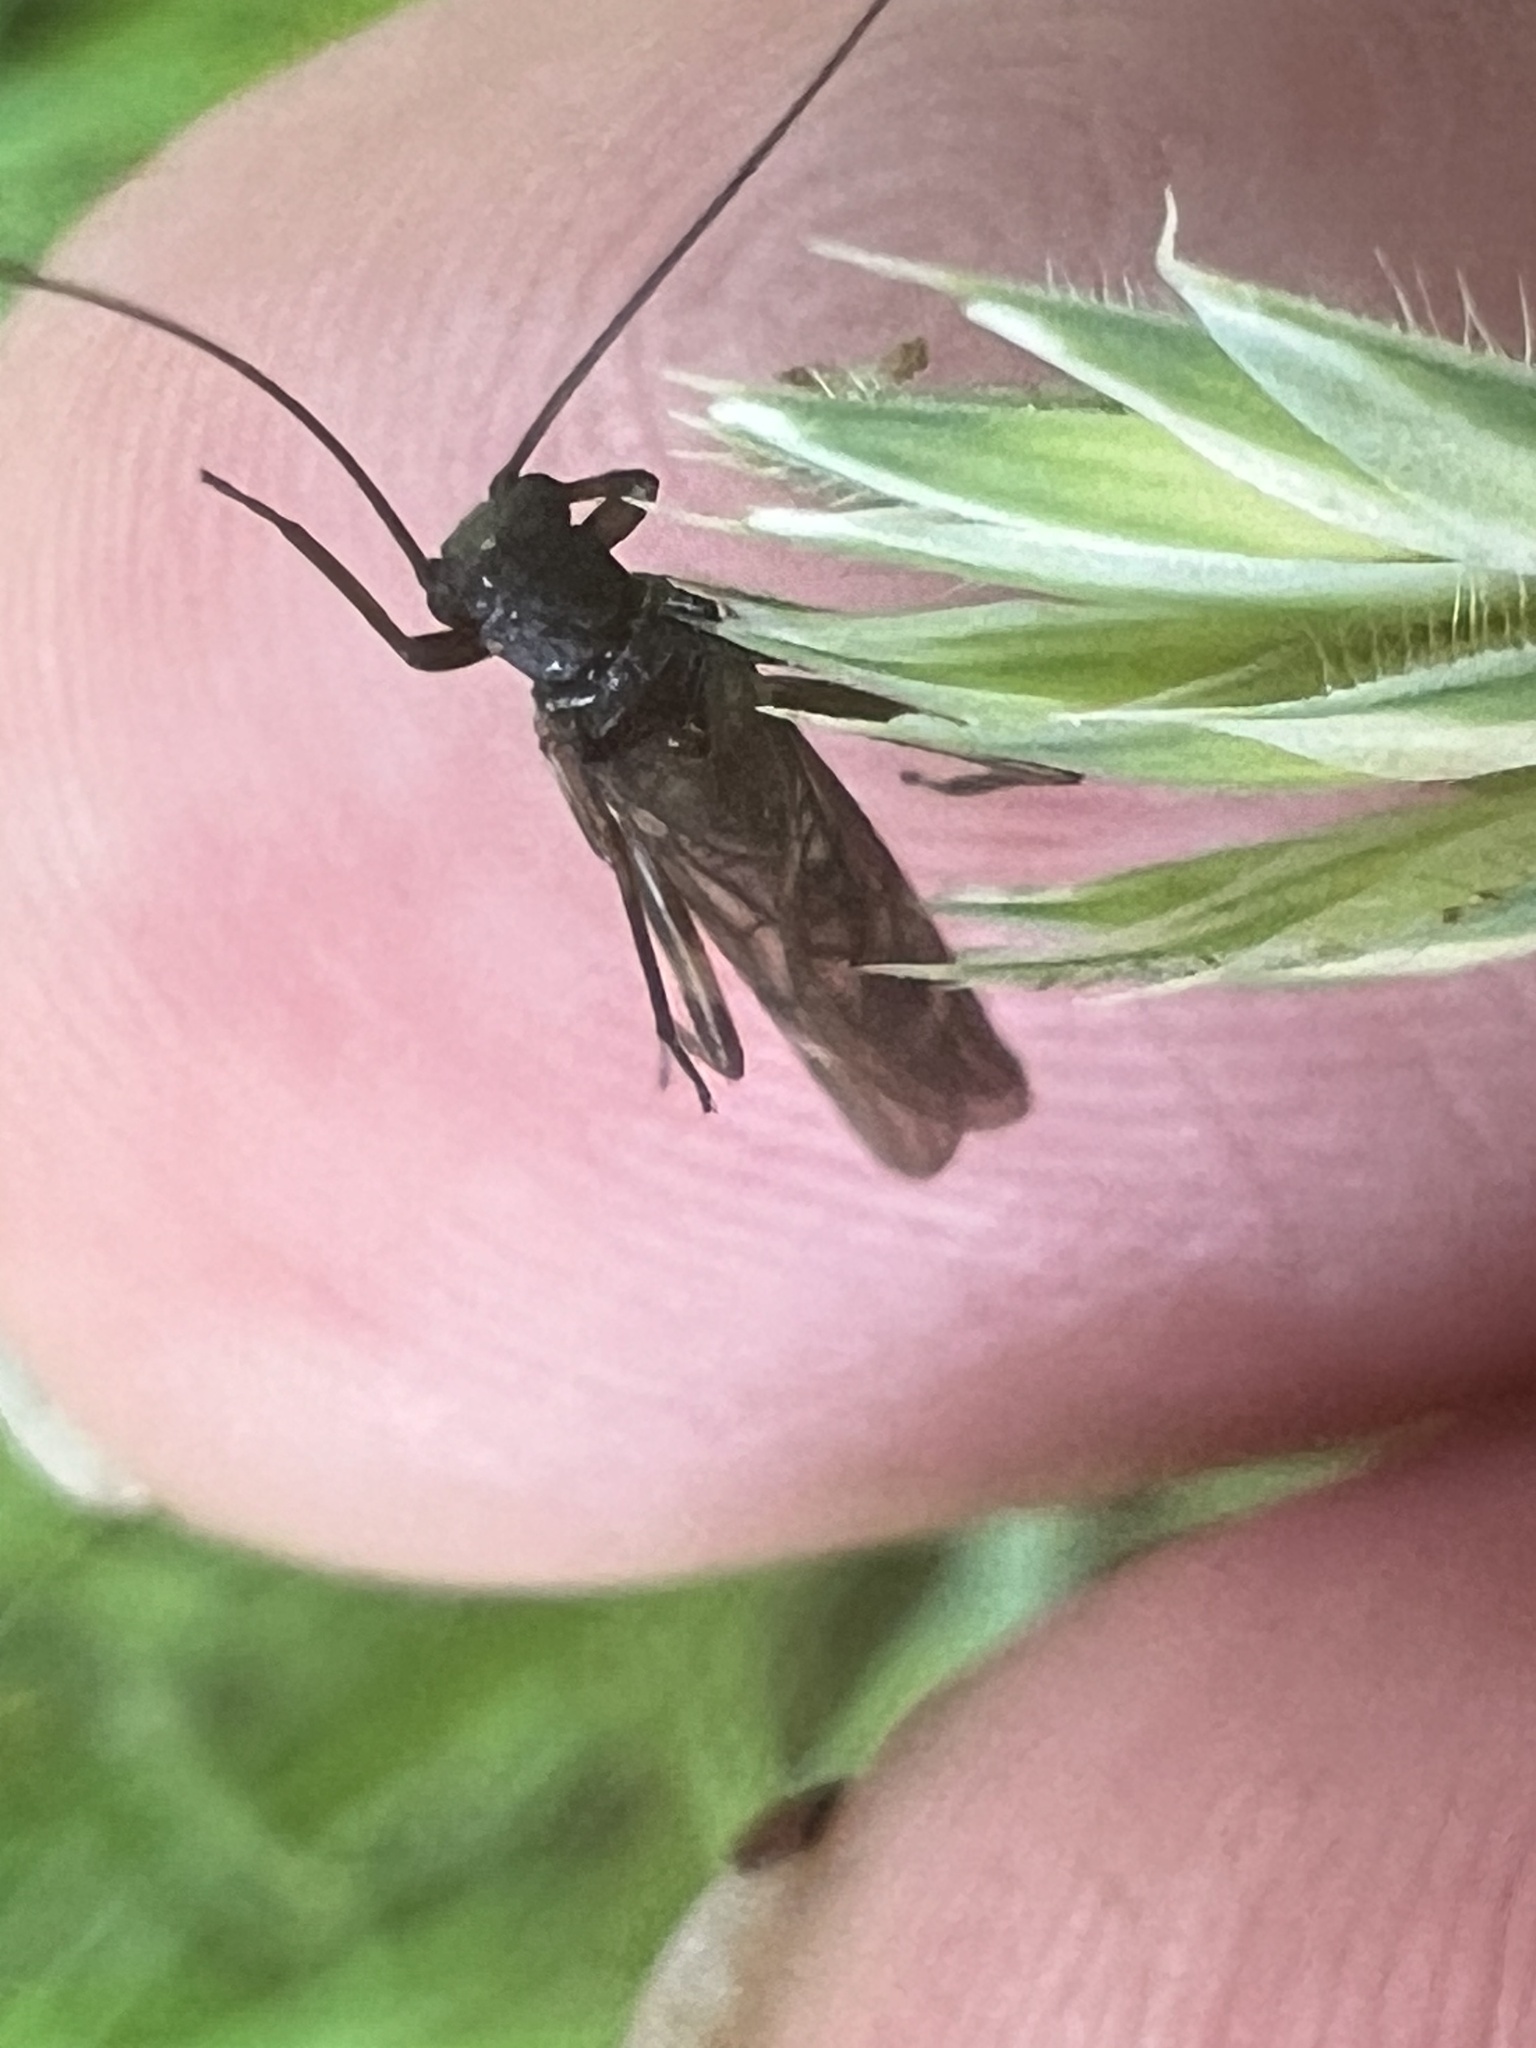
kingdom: Animalia
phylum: Arthropoda
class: Insecta
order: Plecoptera
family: Austroperlidae
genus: Austroperla
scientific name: Austroperla cyrene
